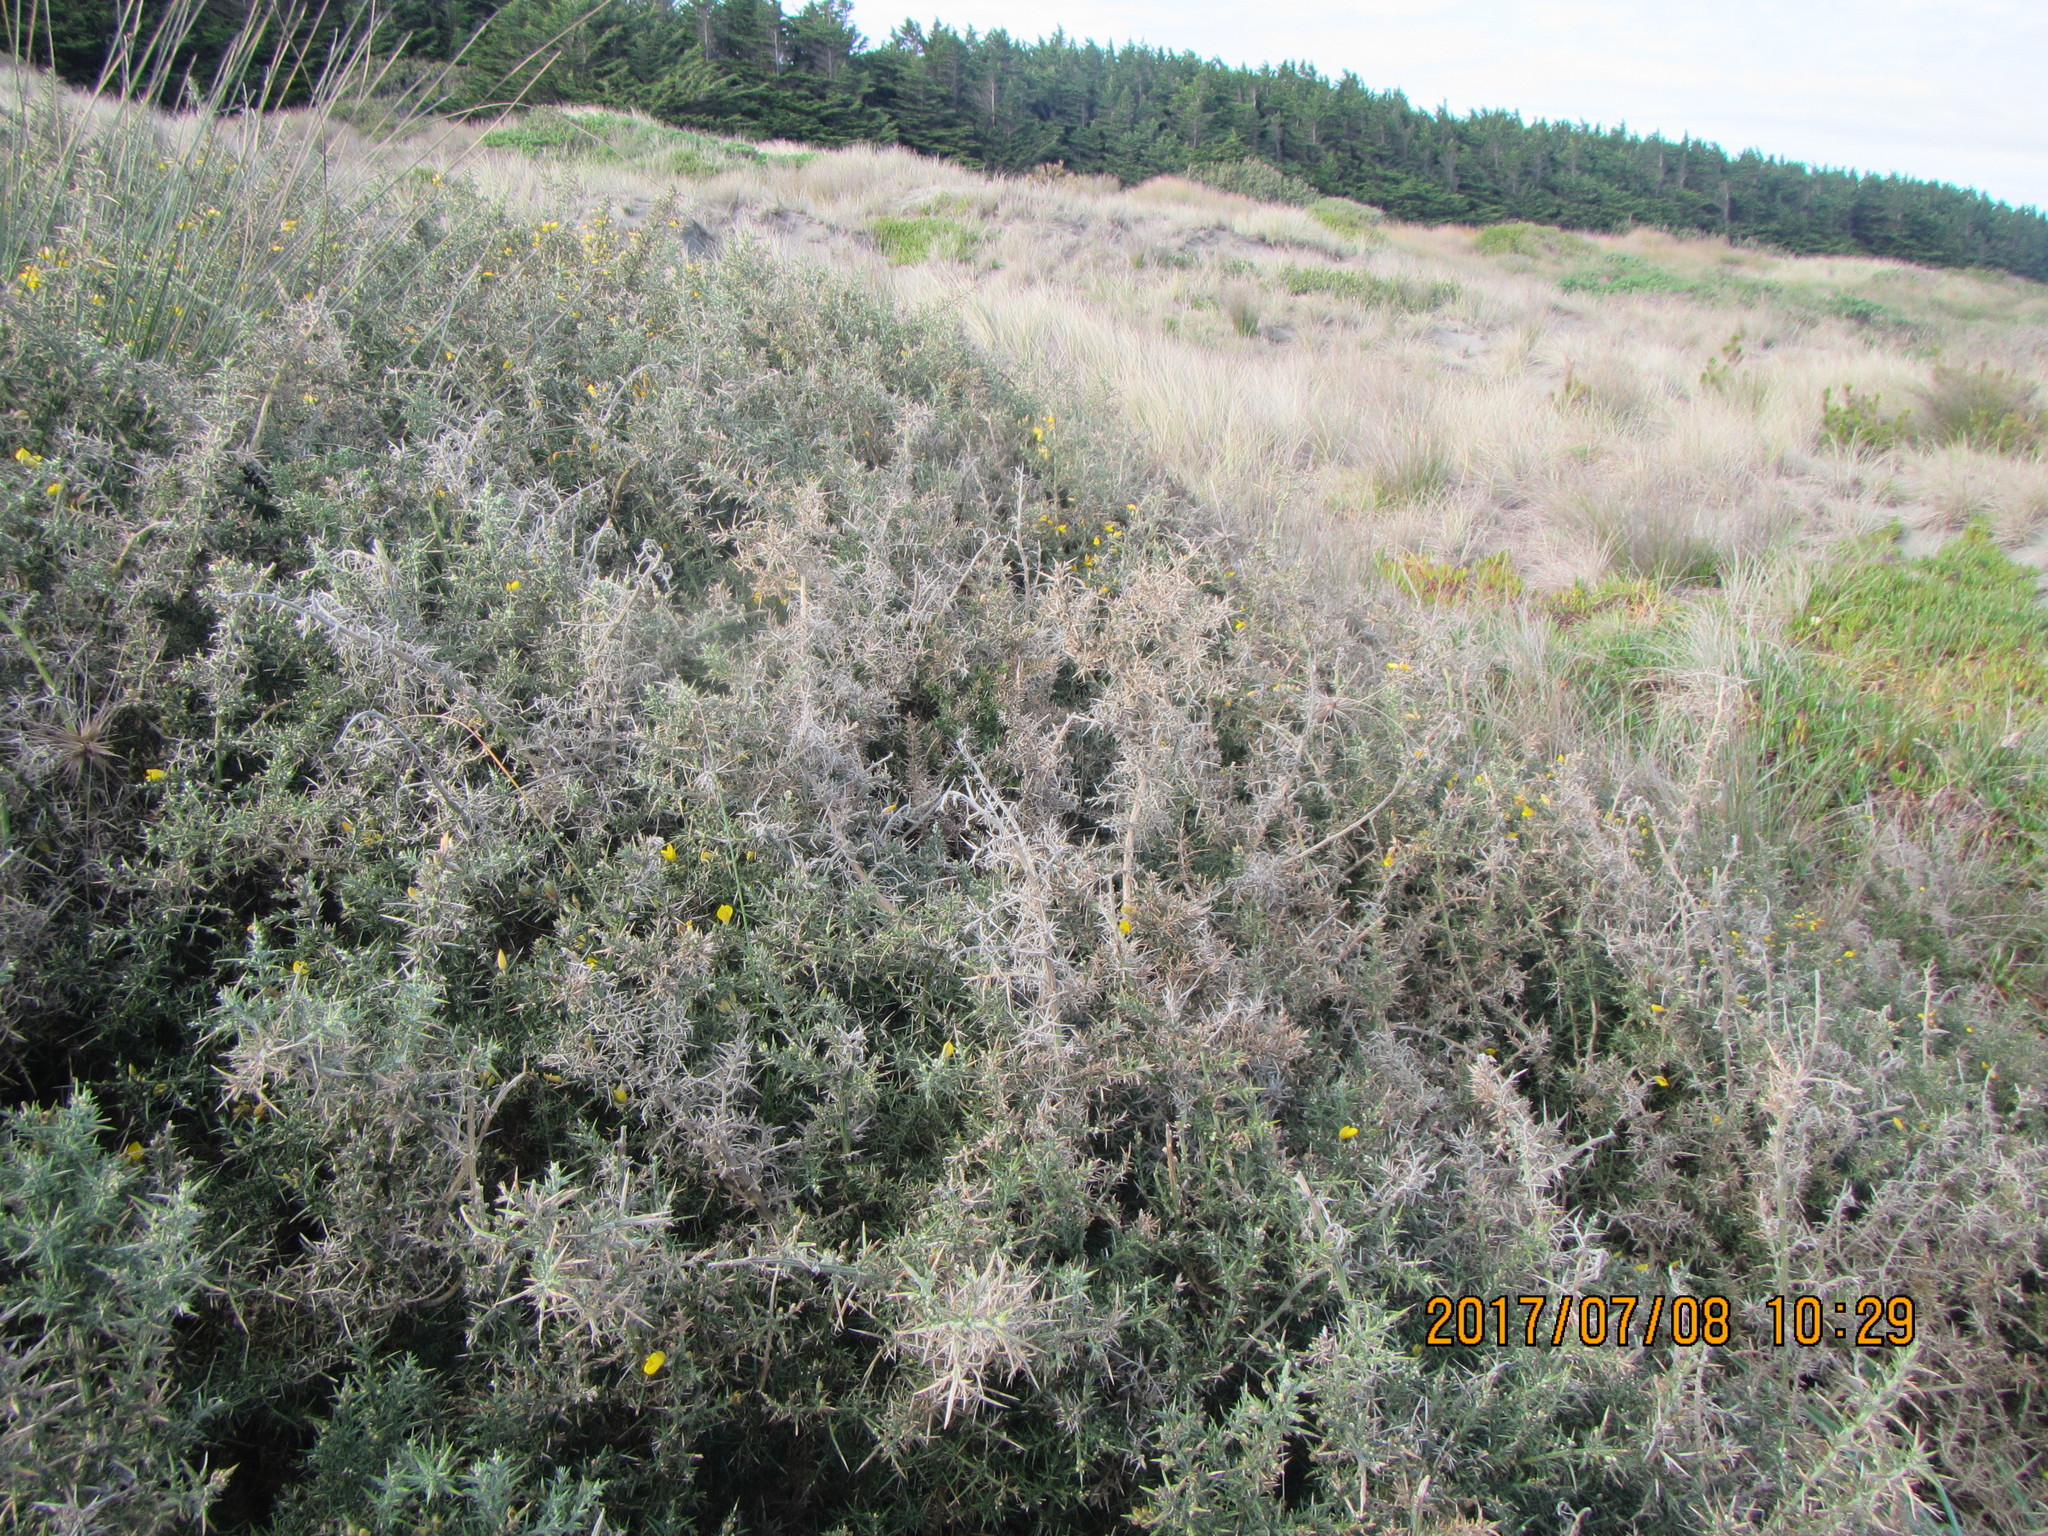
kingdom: Plantae
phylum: Tracheophyta
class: Magnoliopsida
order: Fabales
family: Fabaceae
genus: Ulex
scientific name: Ulex europaeus
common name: Common gorse
